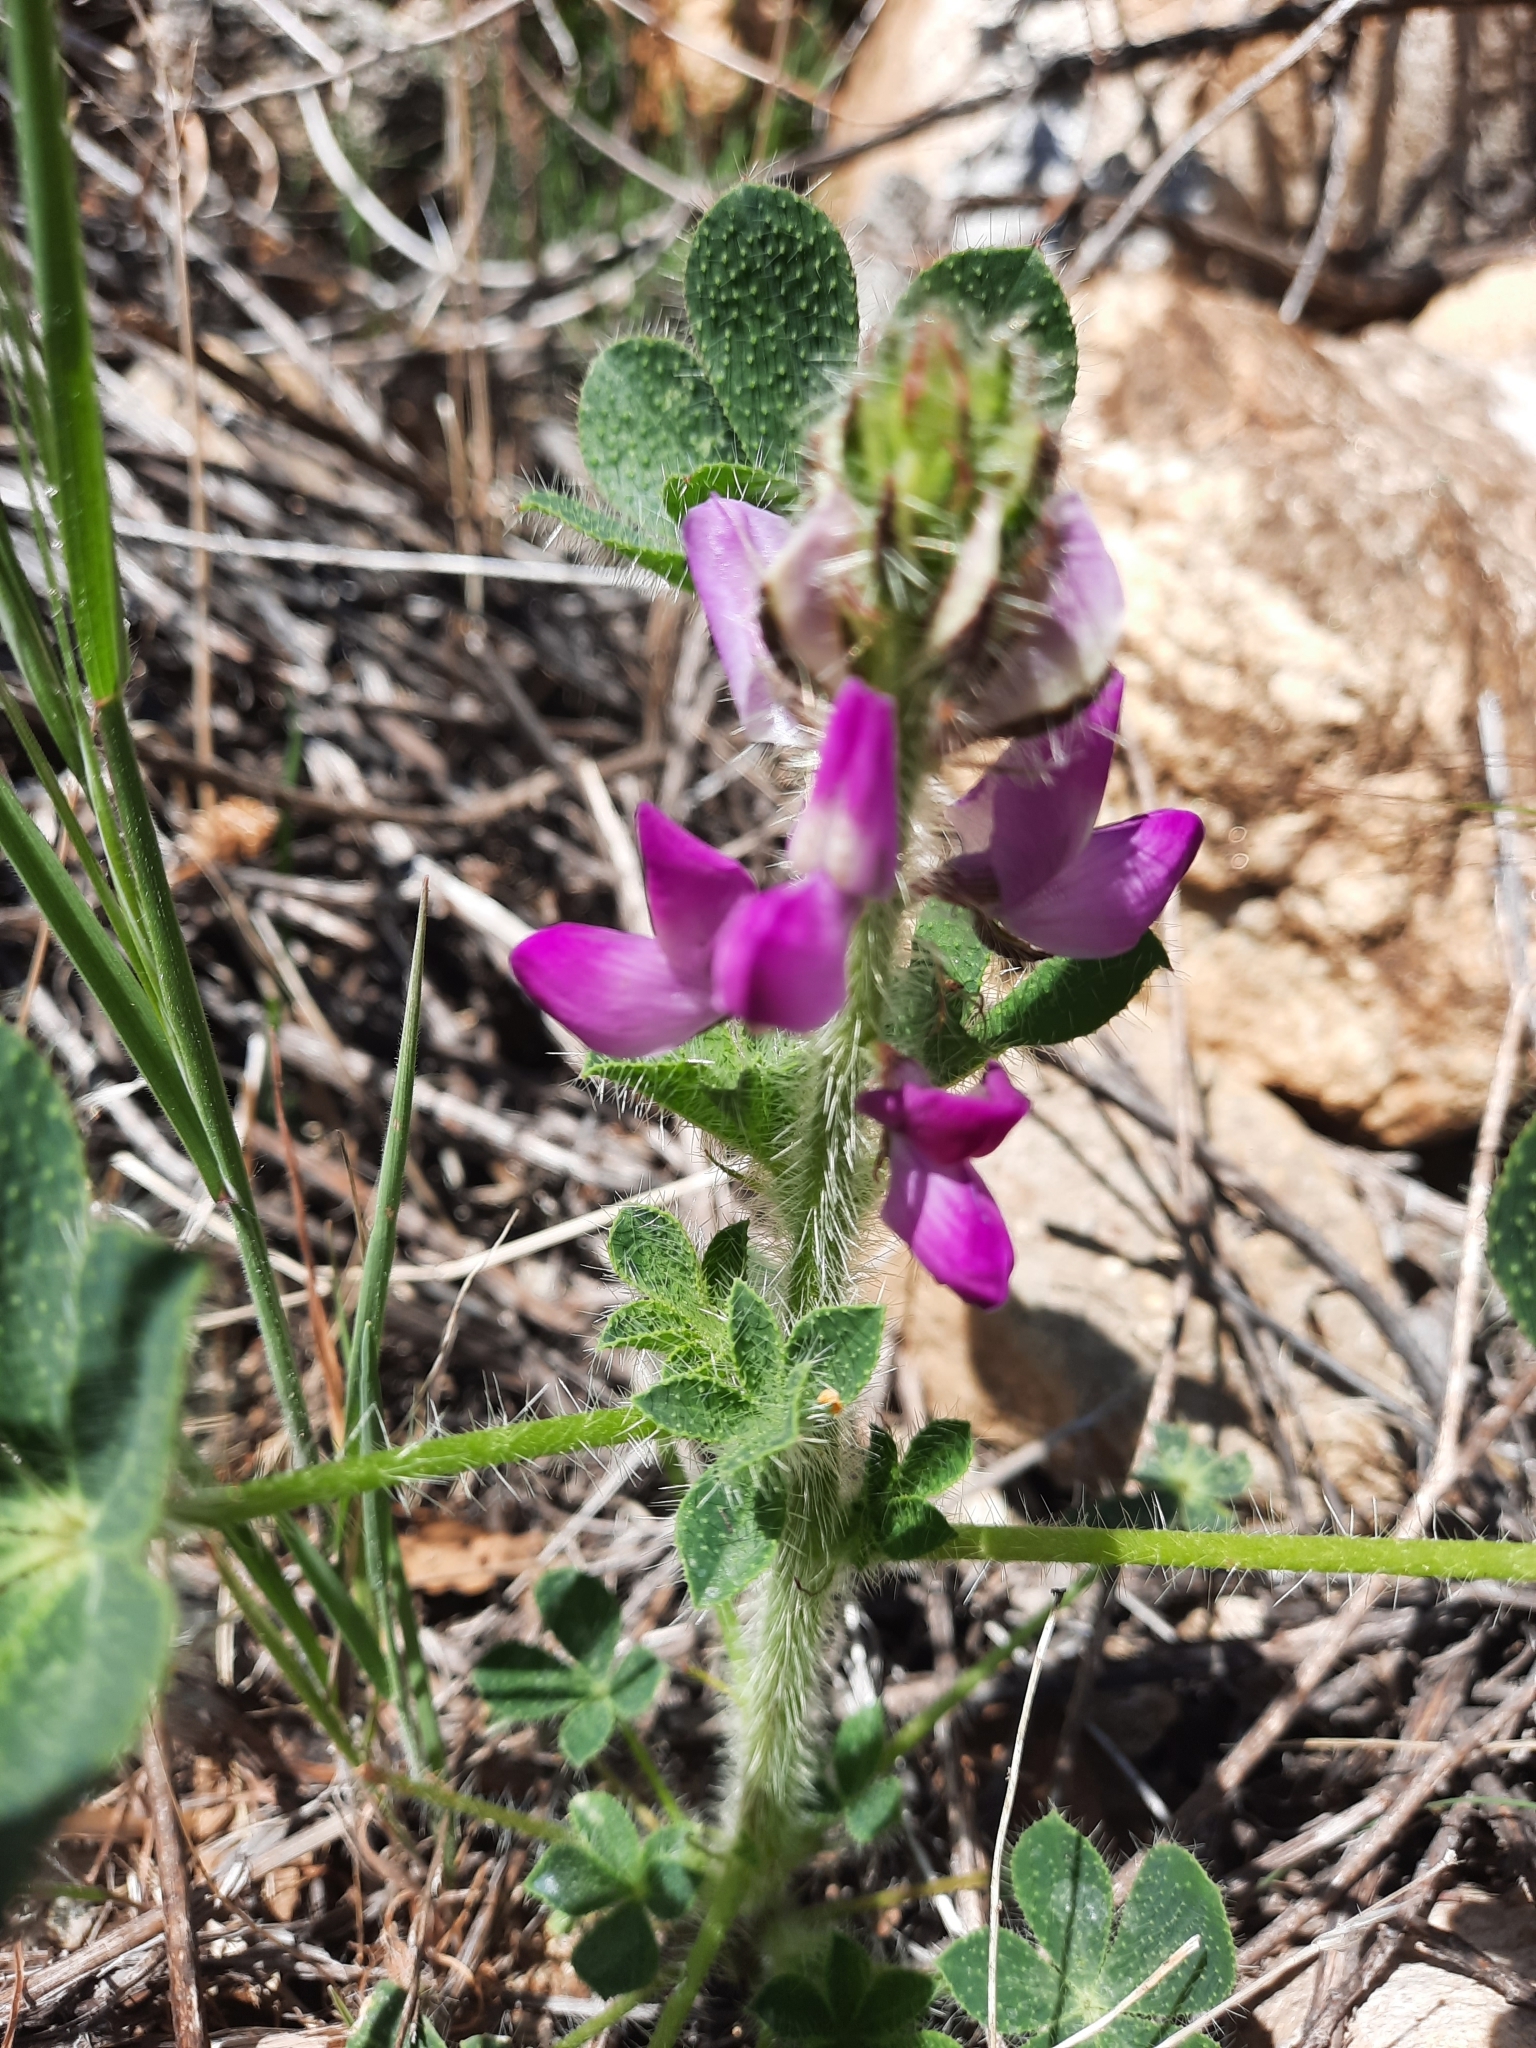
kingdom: Plantae
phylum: Tracheophyta
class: Magnoliopsida
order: Fabales
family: Fabaceae
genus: Lupinus
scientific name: Lupinus hirsutissimus
